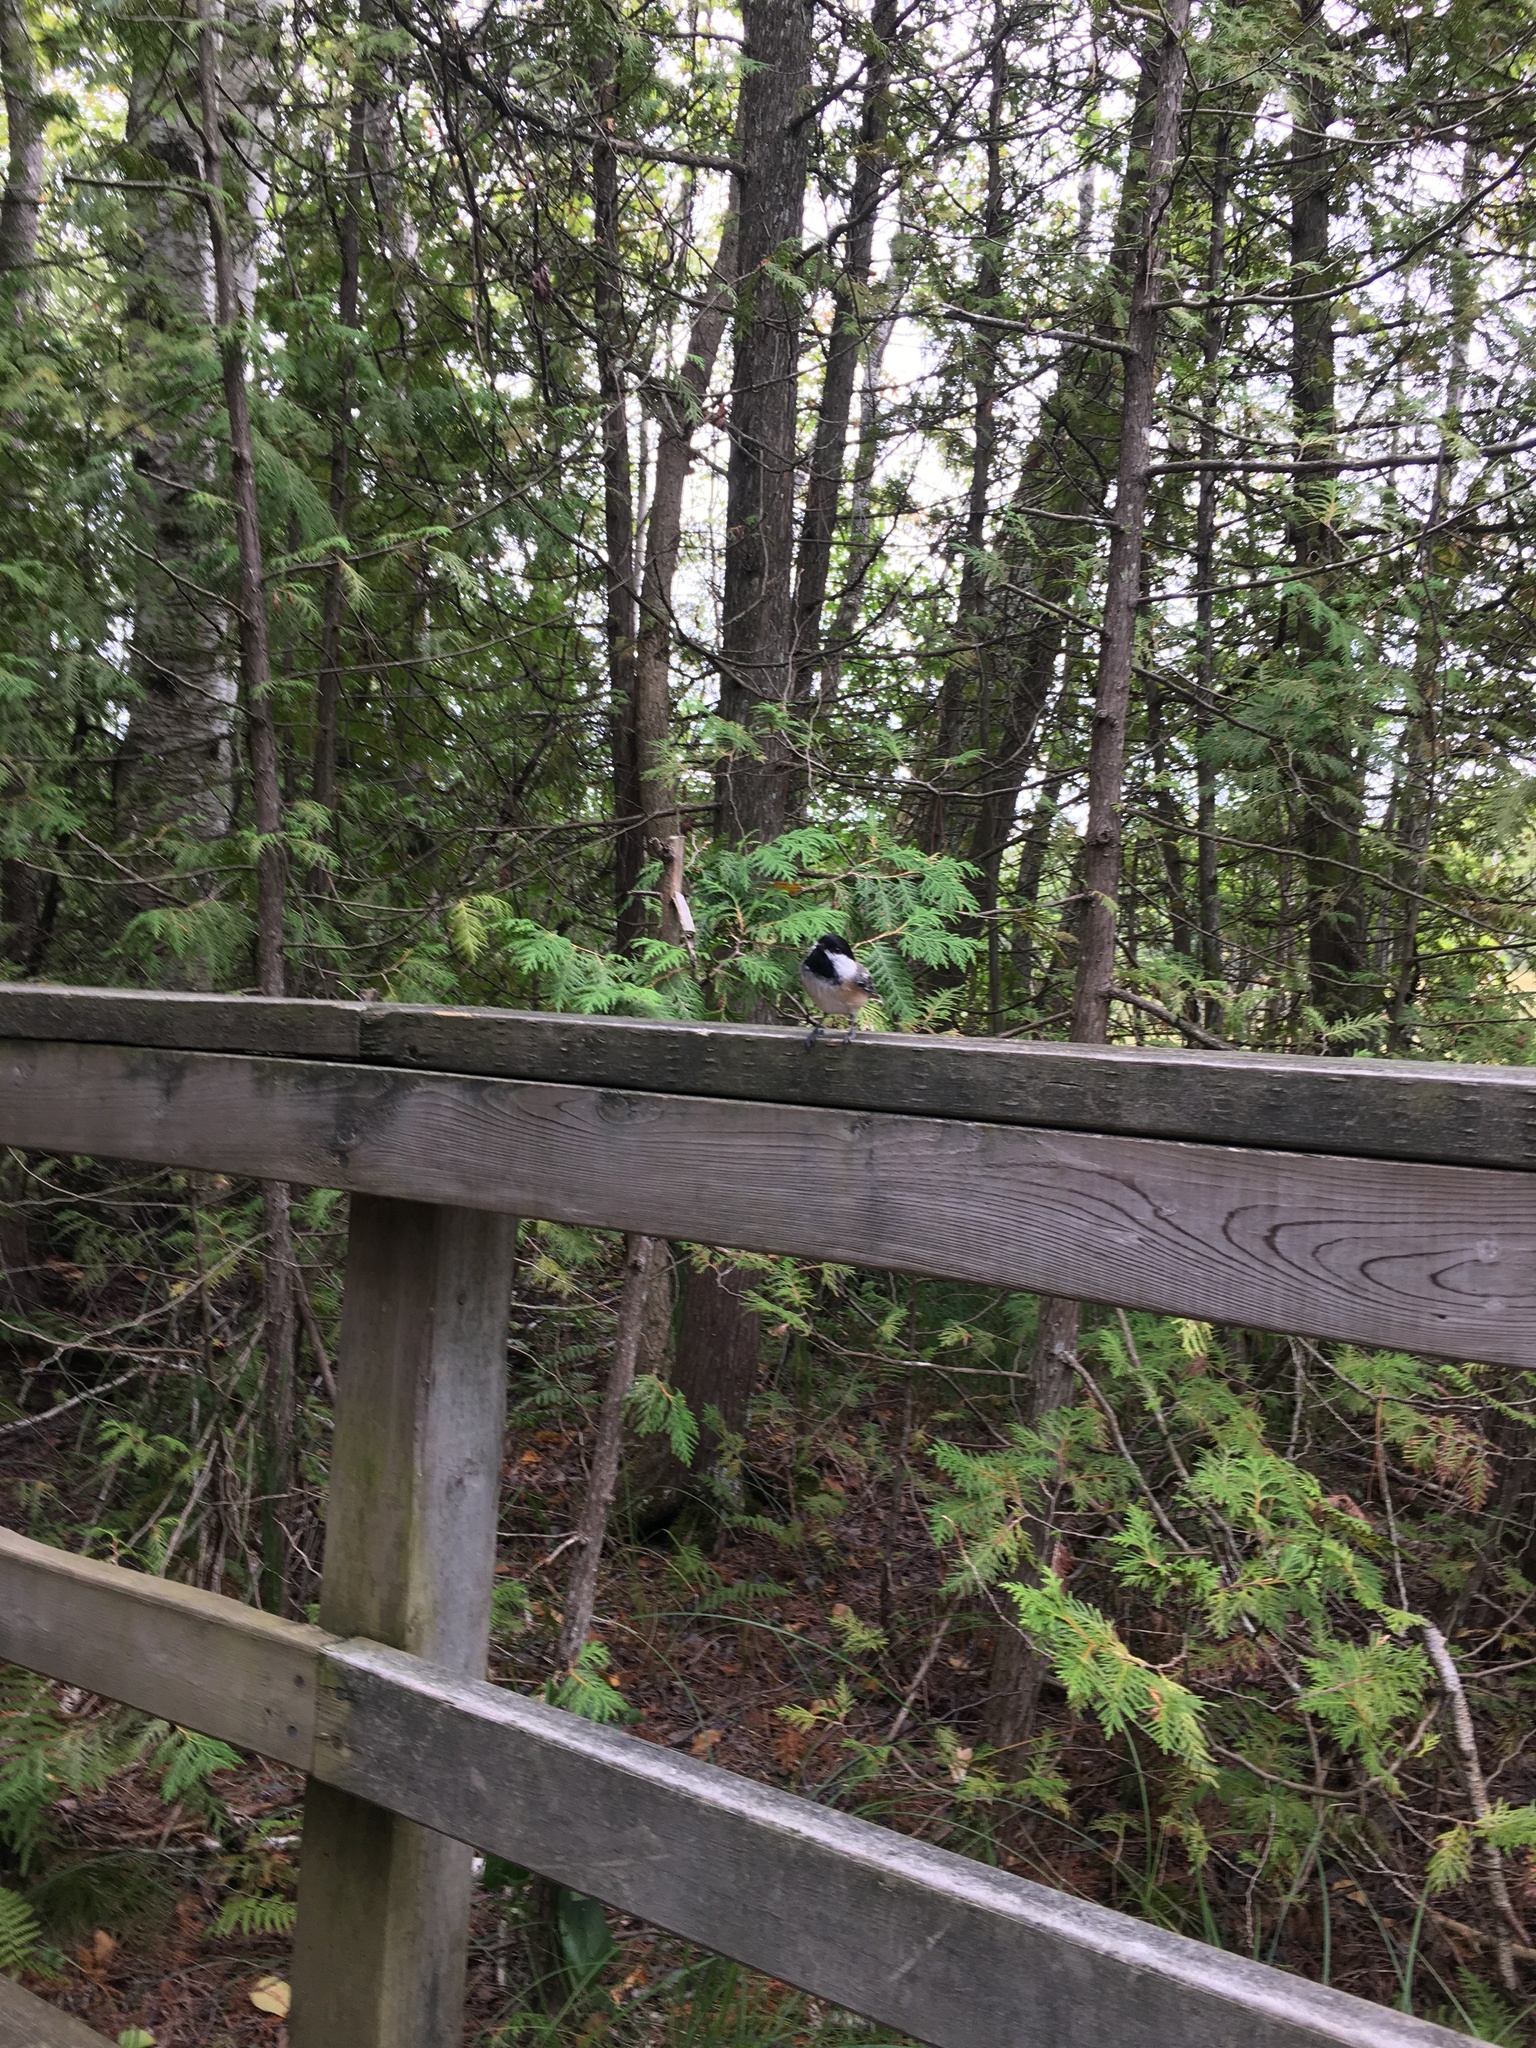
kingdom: Animalia
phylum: Chordata
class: Aves
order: Passeriformes
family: Paridae
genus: Poecile
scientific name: Poecile atricapillus
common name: Black-capped chickadee
